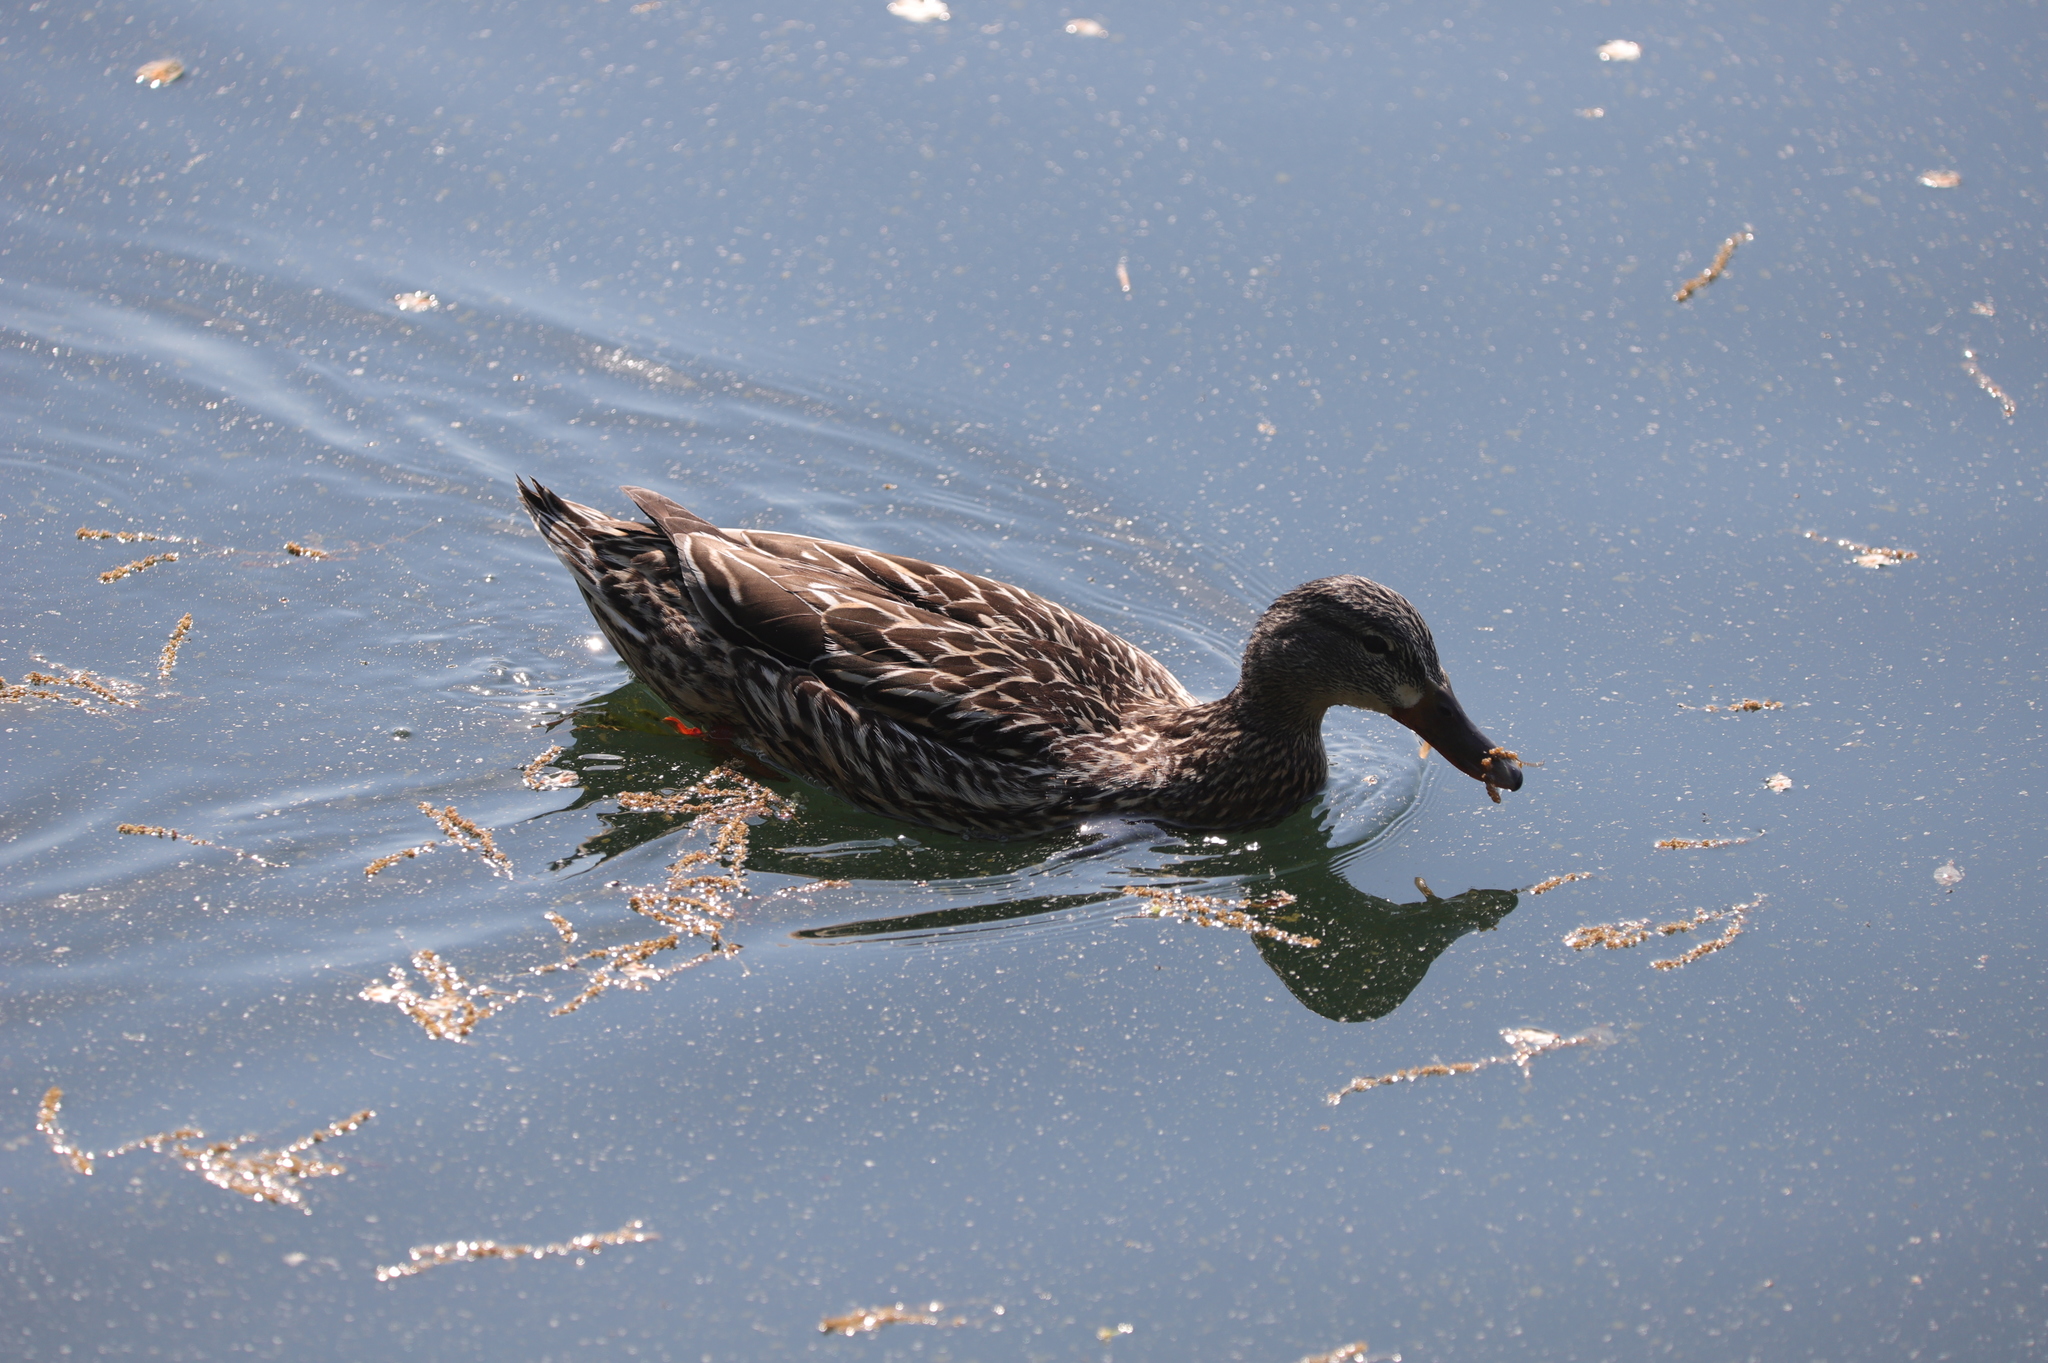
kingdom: Animalia
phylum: Chordata
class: Aves
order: Anseriformes
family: Anatidae
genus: Anas
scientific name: Anas platyrhynchos
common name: Mallard
